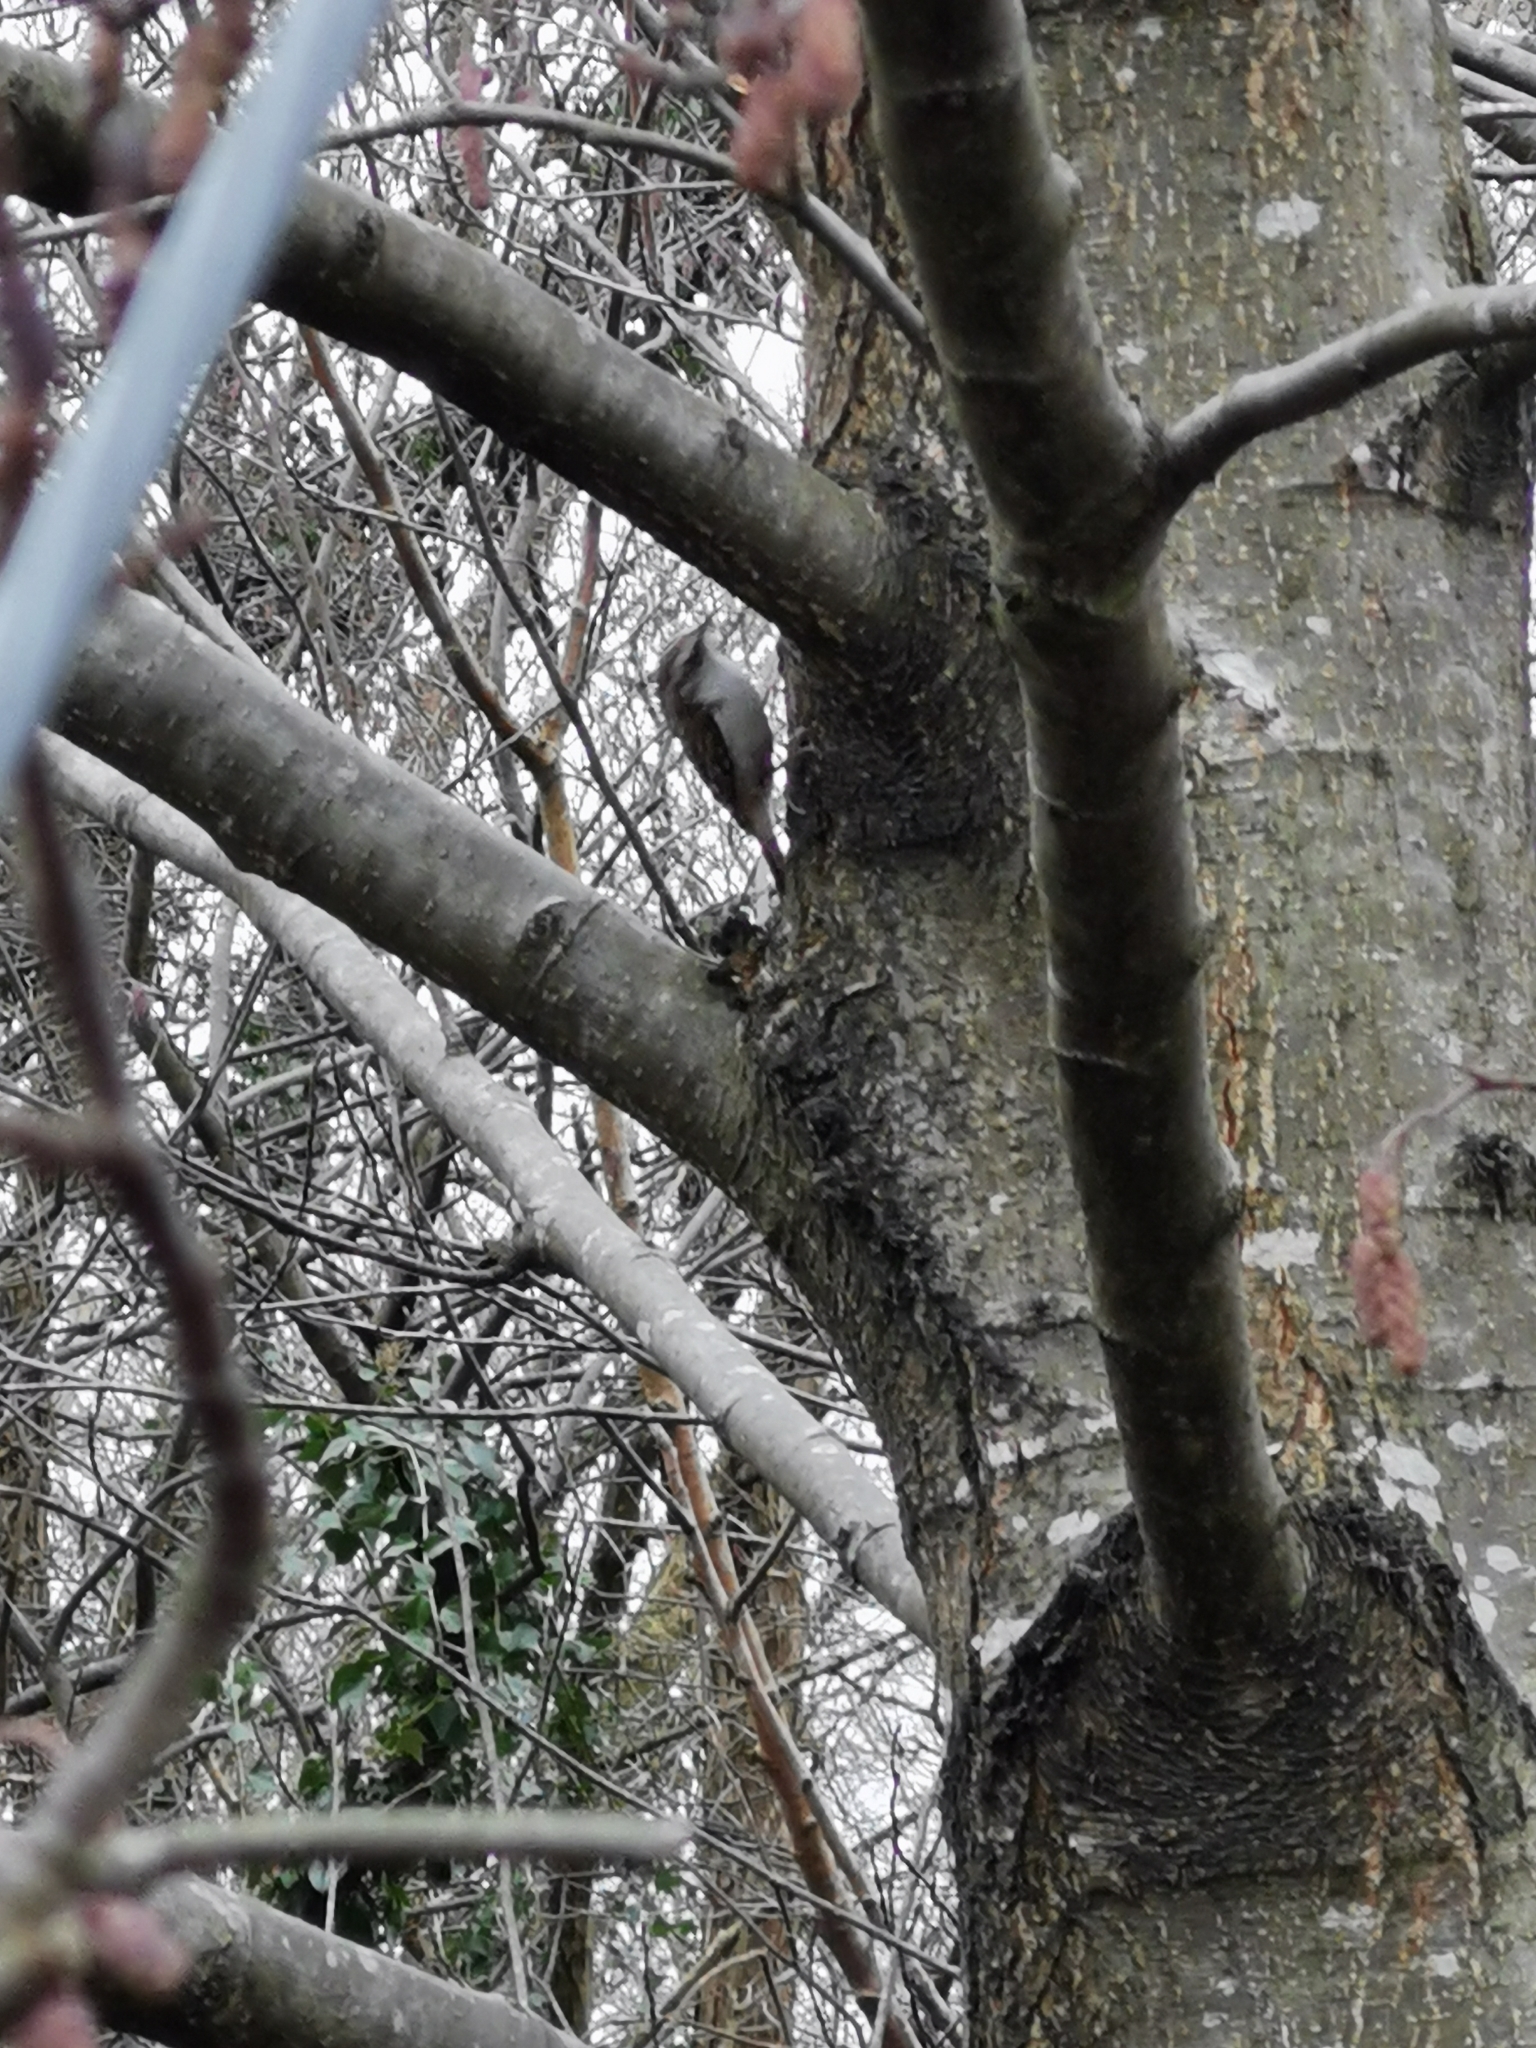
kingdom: Animalia
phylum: Chordata
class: Aves
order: Passeriformes
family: Certhiidae
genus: Certhia
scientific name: Certhia familiaris
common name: Eurasian treecreeper
